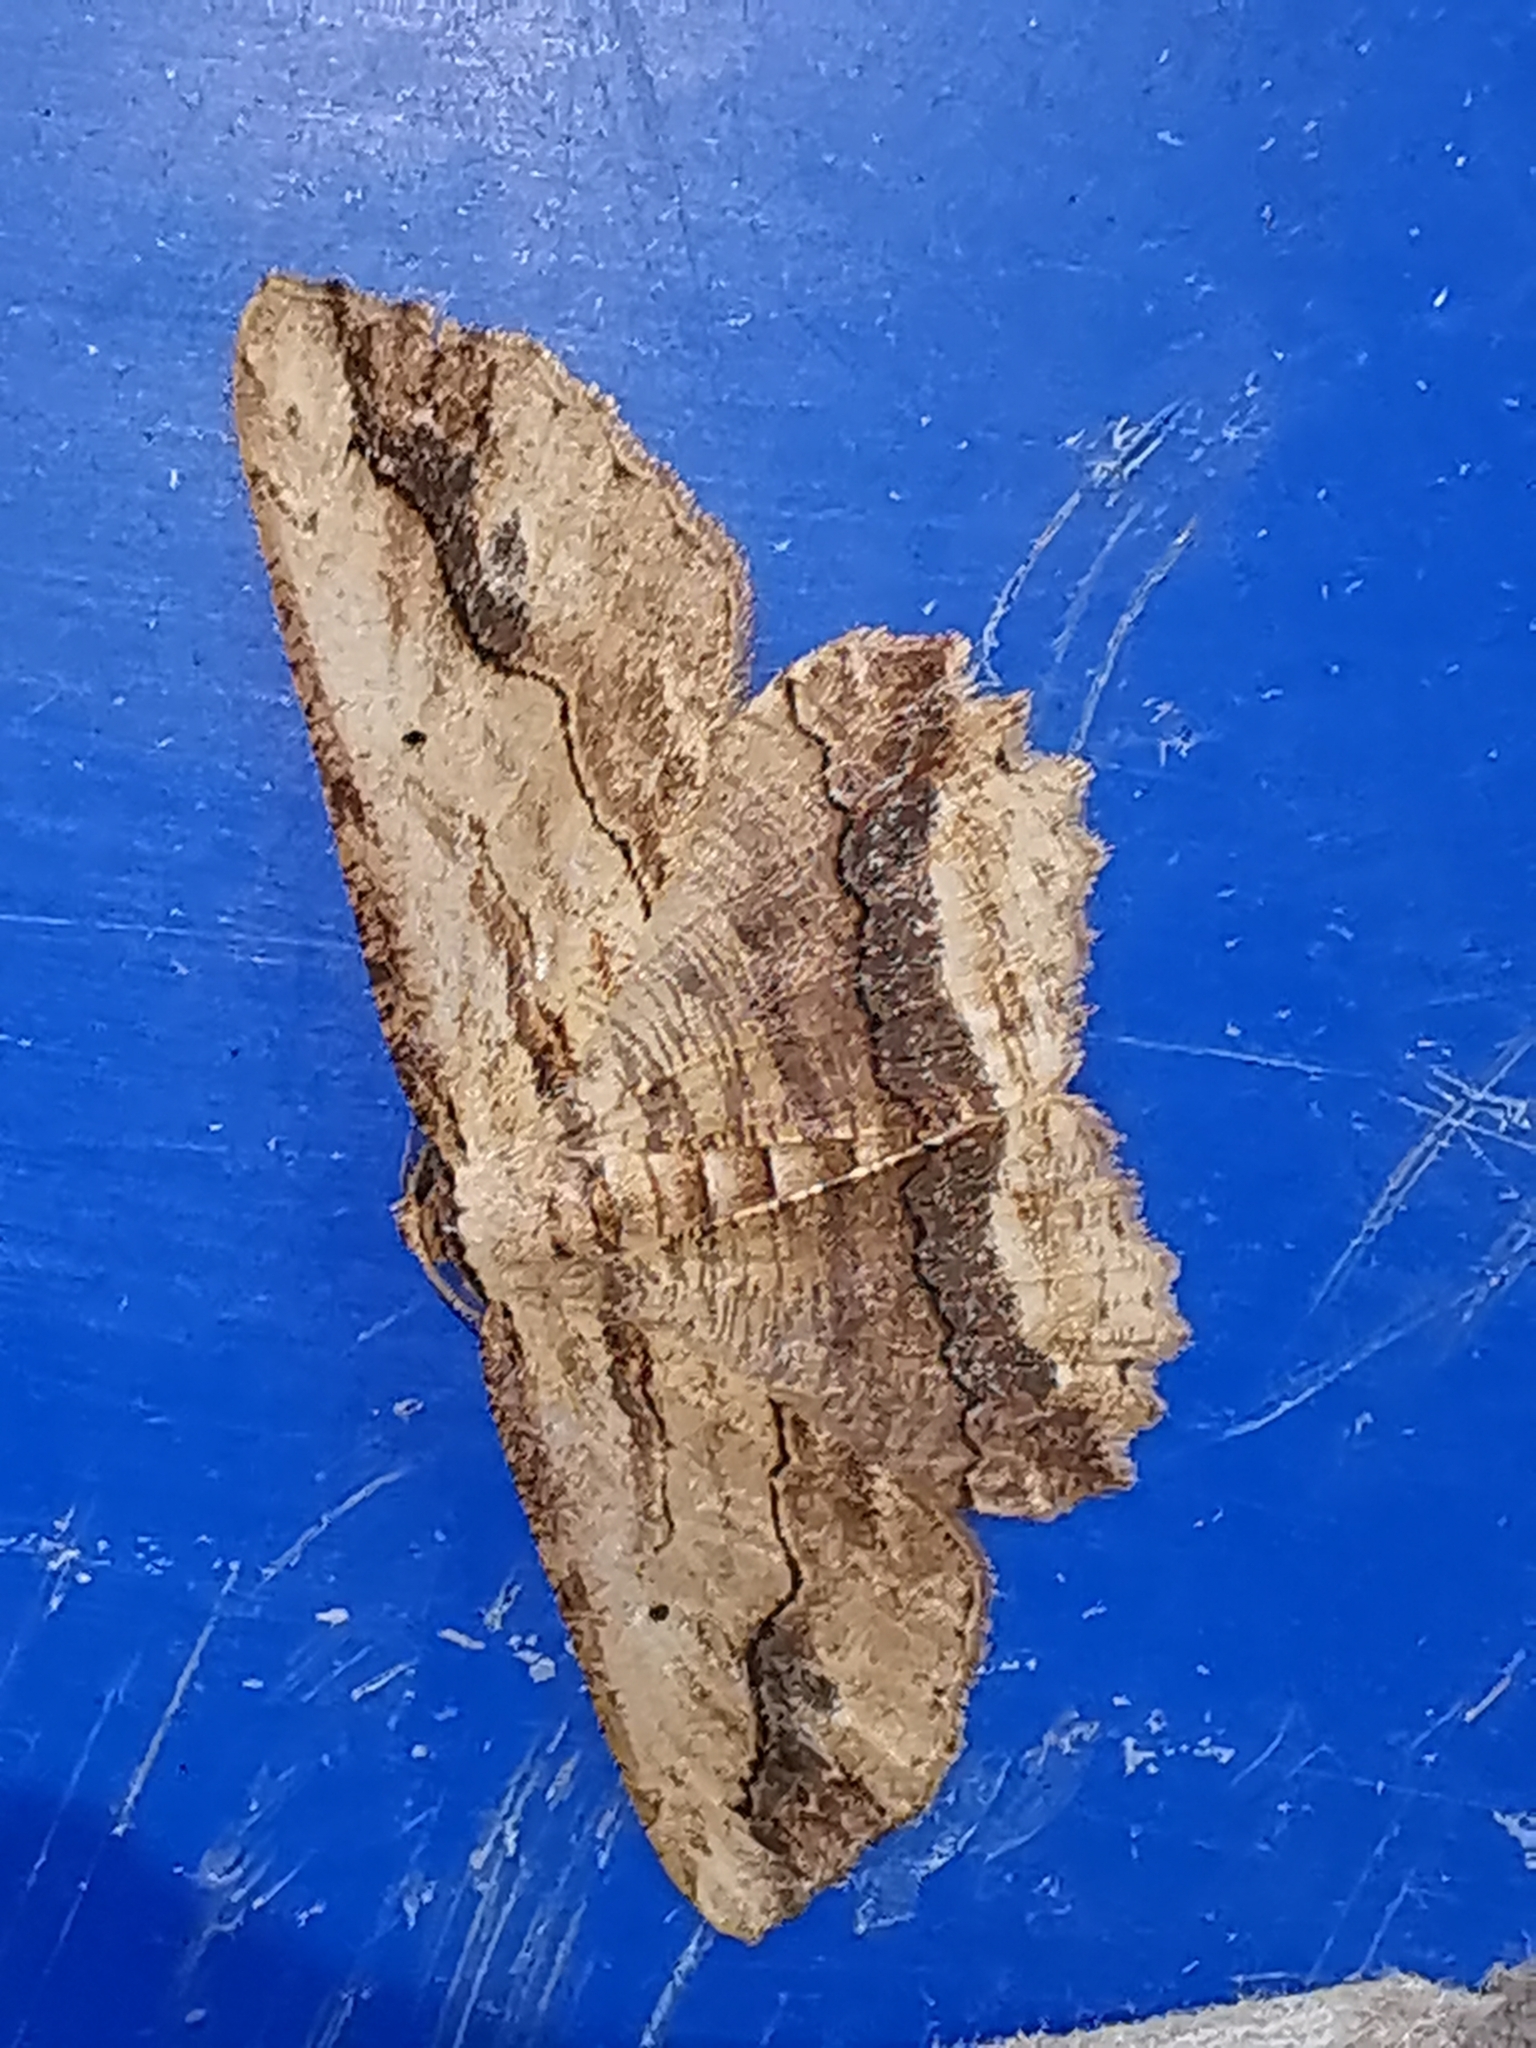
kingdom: Animalia
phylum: Arthropoda
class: Insecta
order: Lepidoptera
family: Geometridae
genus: Menophra
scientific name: Menophra abruptaria
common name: Waved umber
